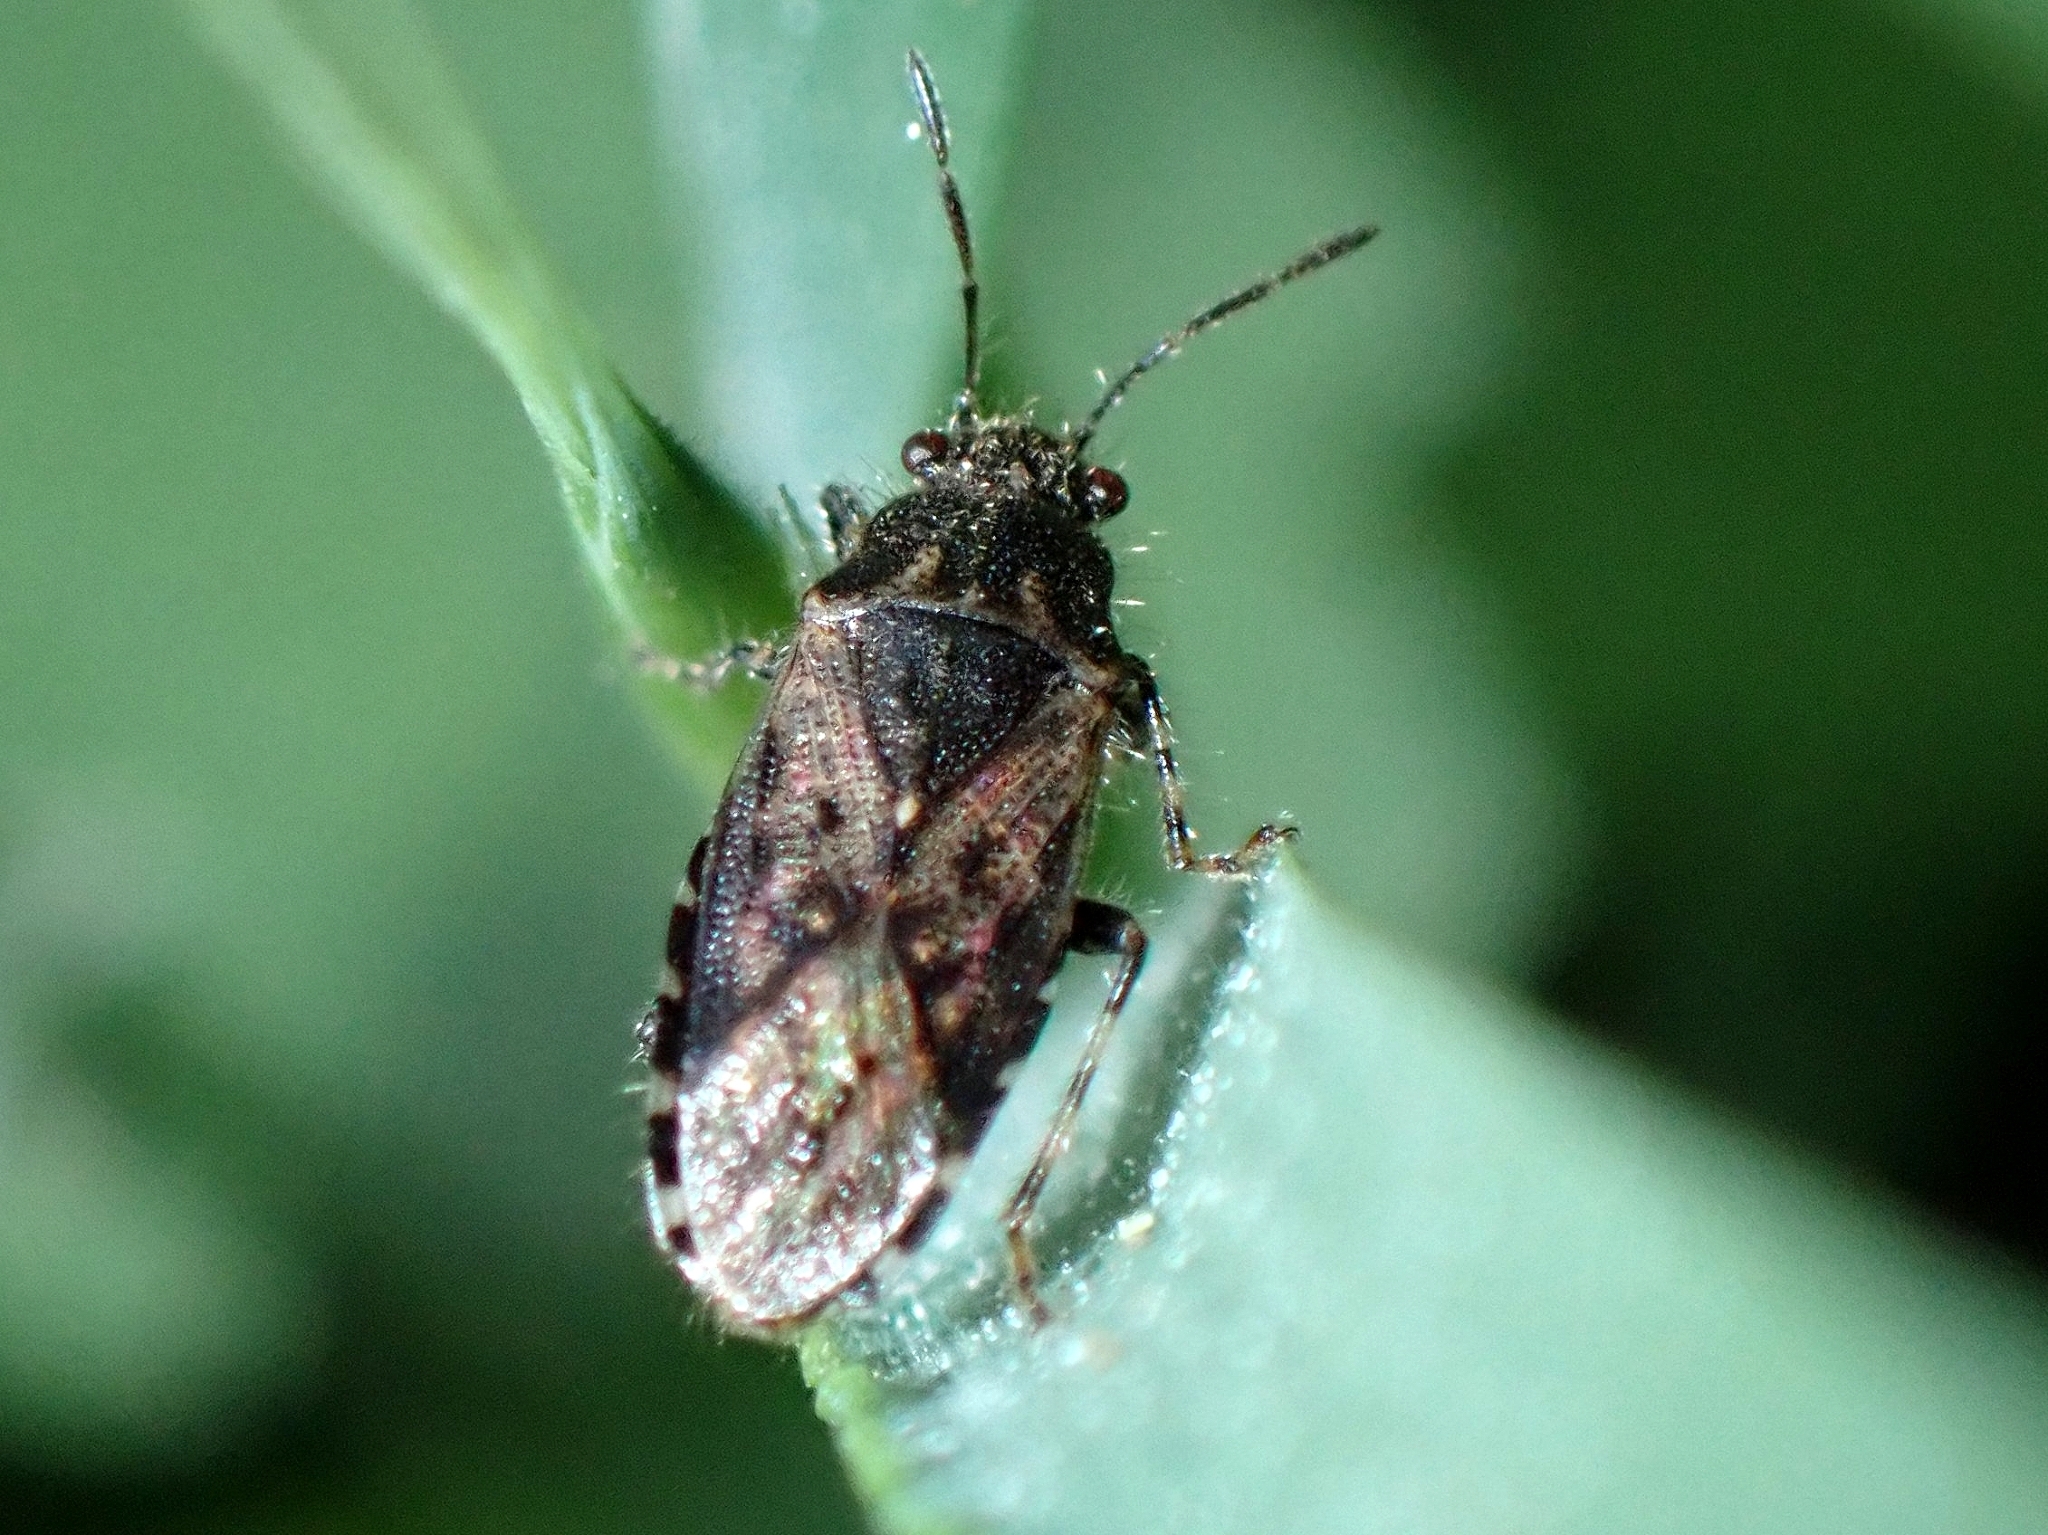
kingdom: Animalia
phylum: Arthropoda
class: Insecta
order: Hemiptera
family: Heterogastridae
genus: Heterogaster
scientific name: Heterogaster urticae
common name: Seed bug
